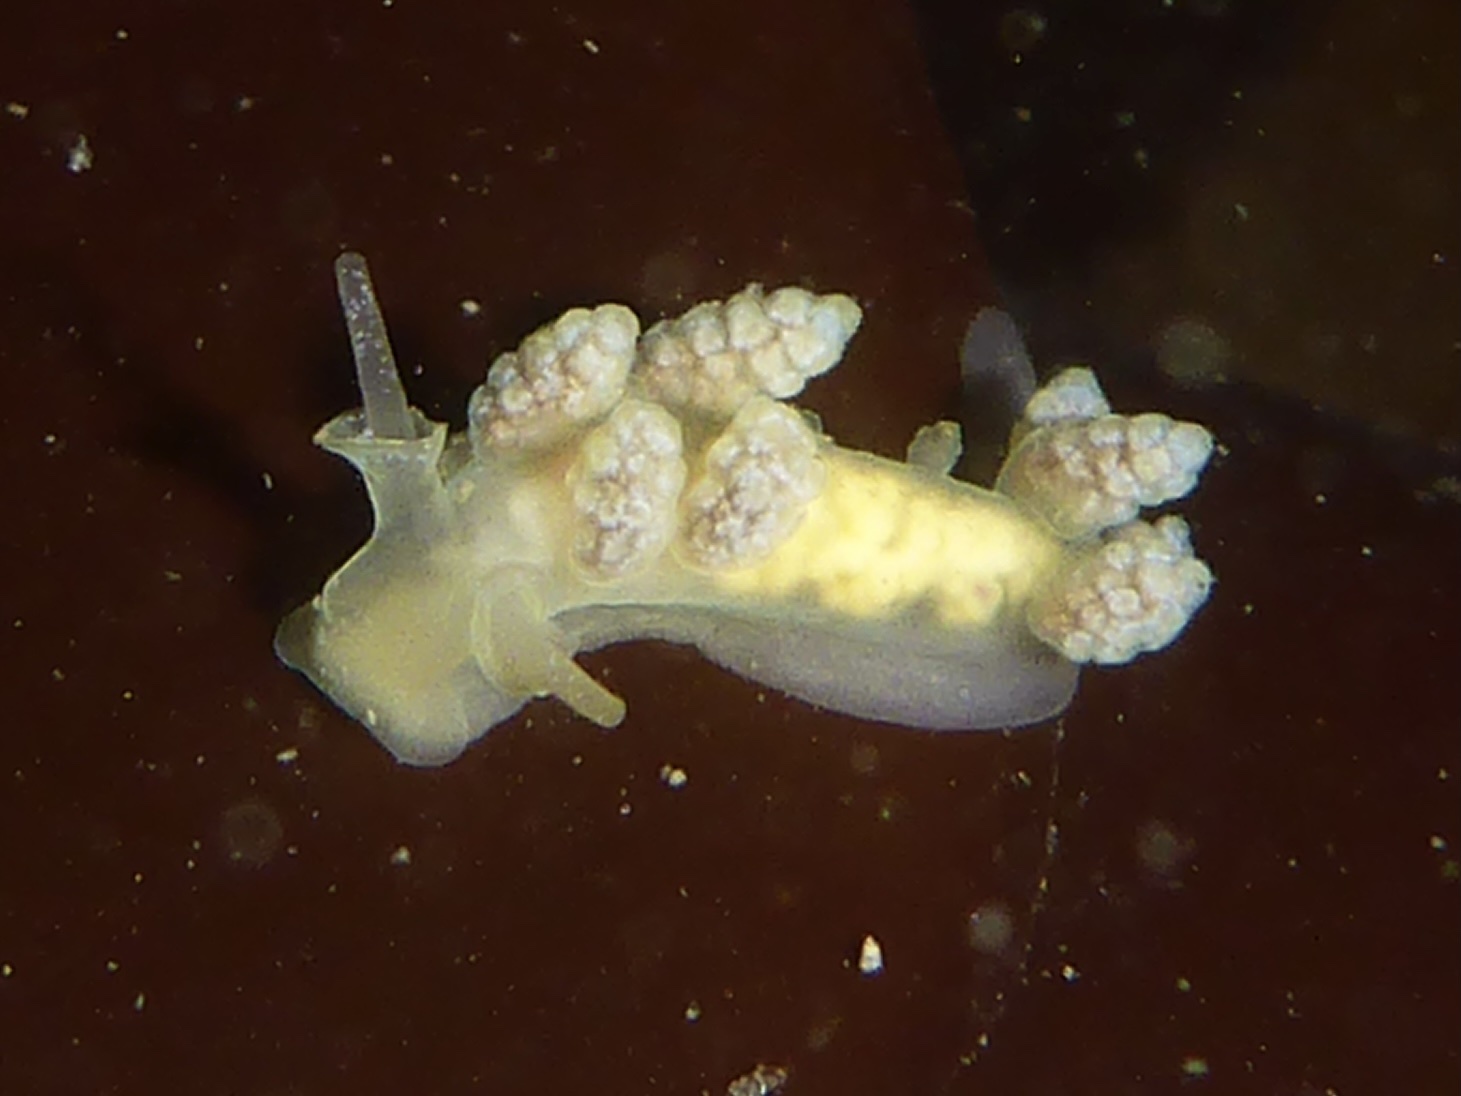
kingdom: Animalia
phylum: Mollusca
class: Gastropoda
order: Nudibranchia
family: Dotidae
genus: Doto
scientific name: Doto amyra
